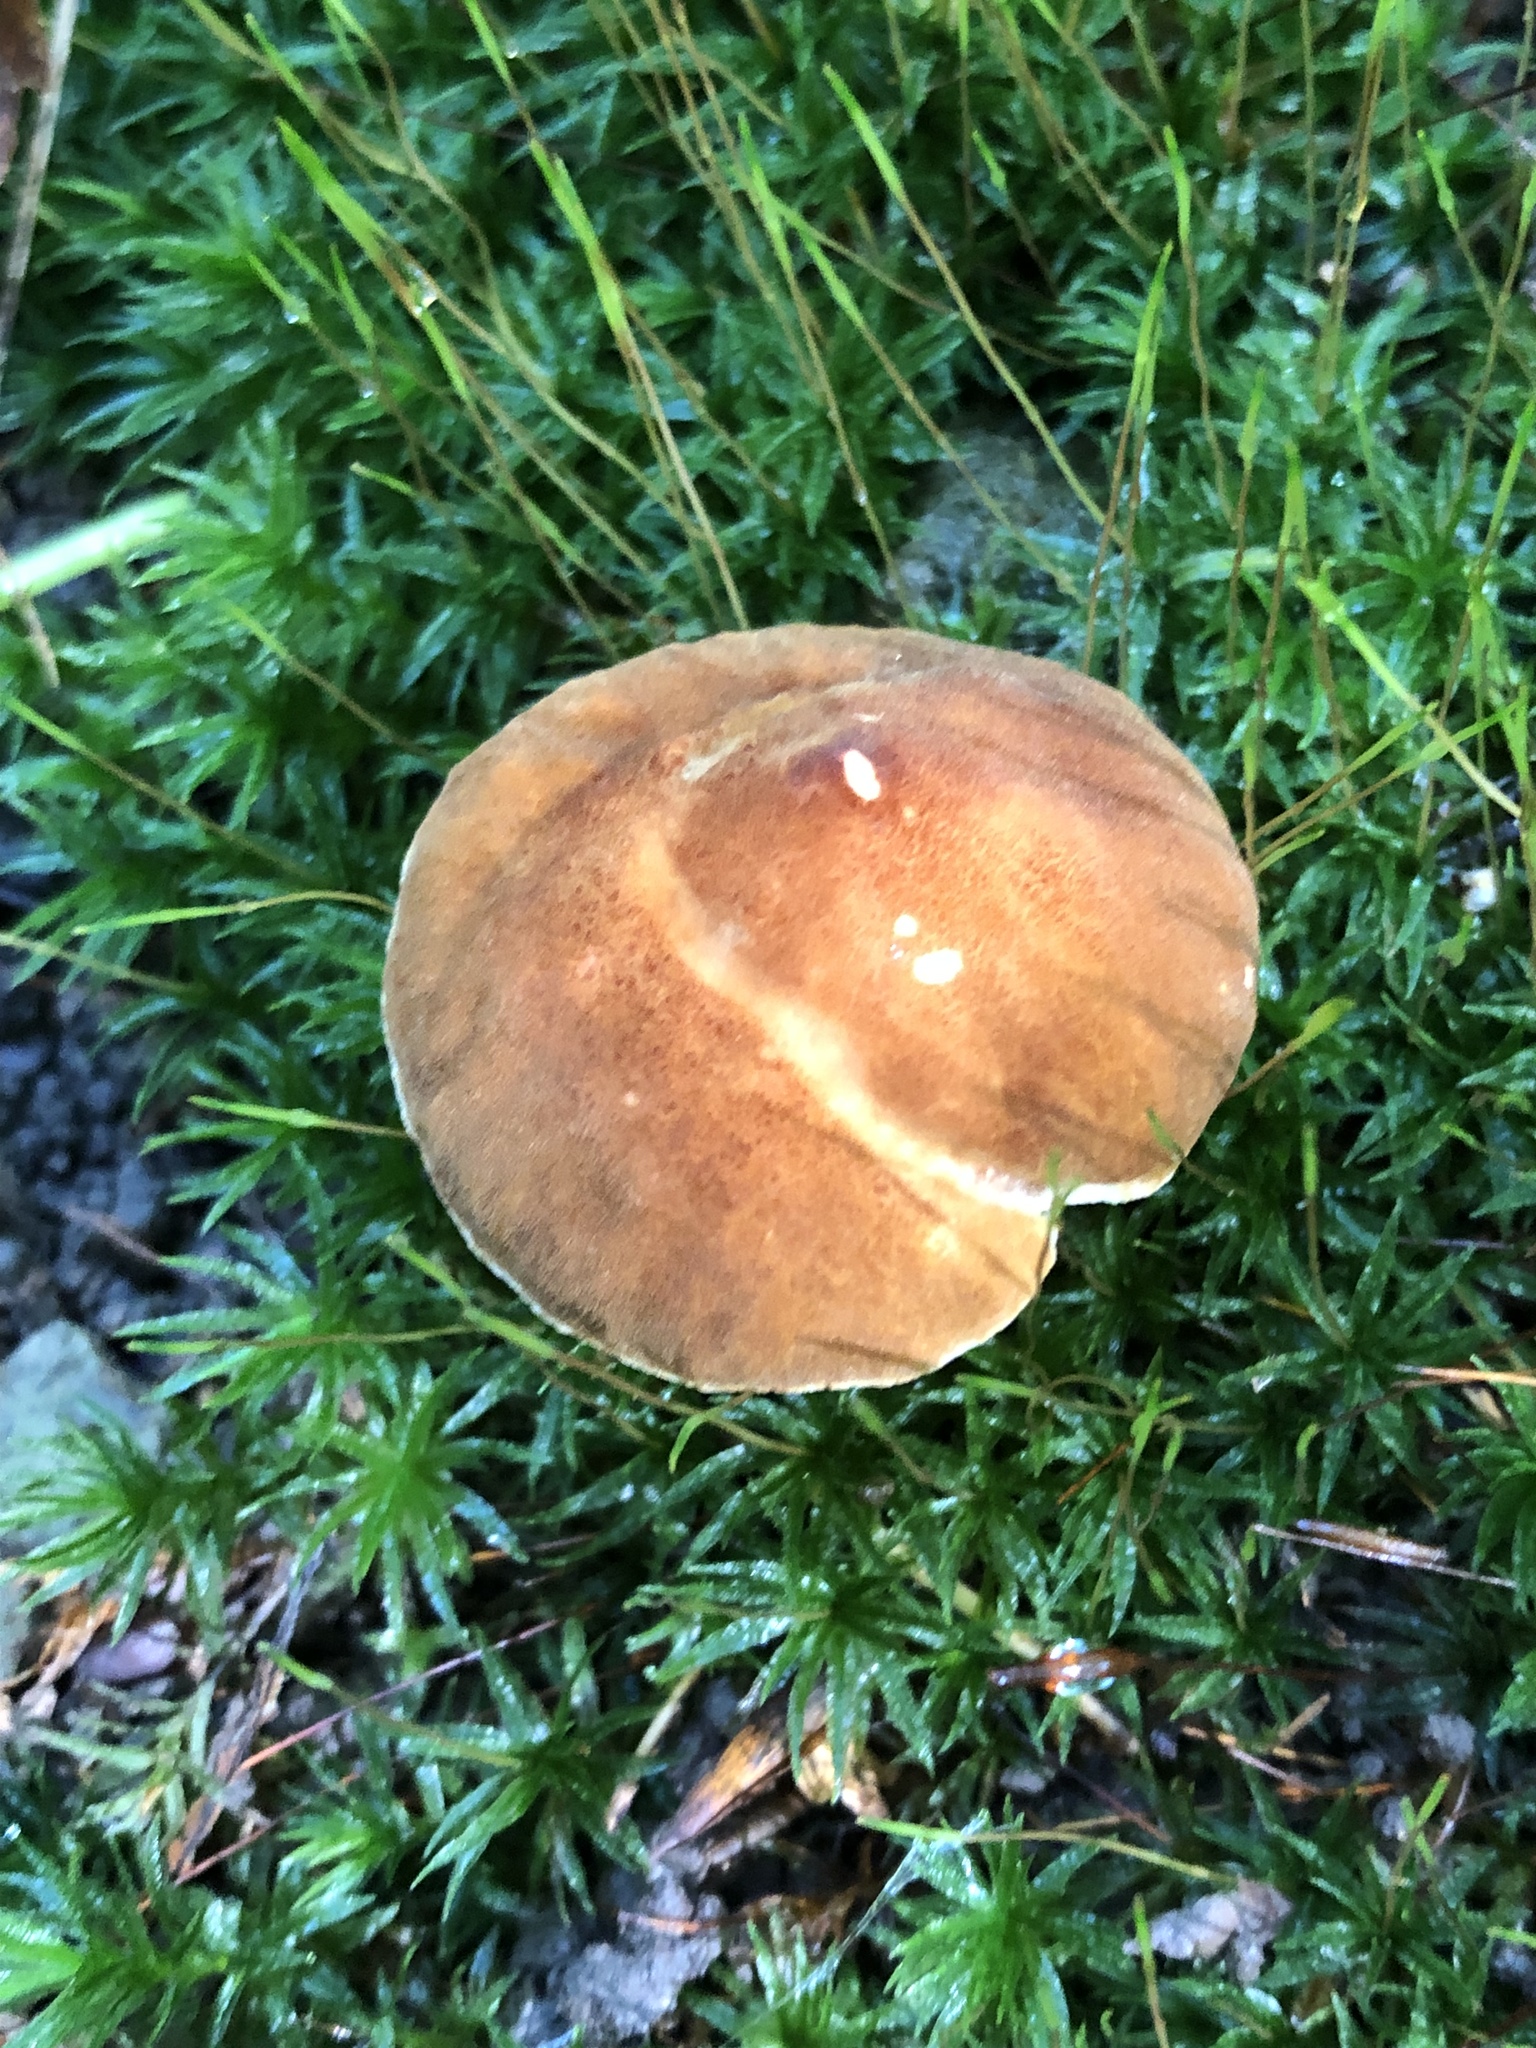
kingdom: Fungi
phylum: Basidiomycota
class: Agaricomycetes
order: Boletales
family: Gyroporaceae
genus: Gyroporus
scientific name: Gyroporus castaneus
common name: Chestnut bolete
